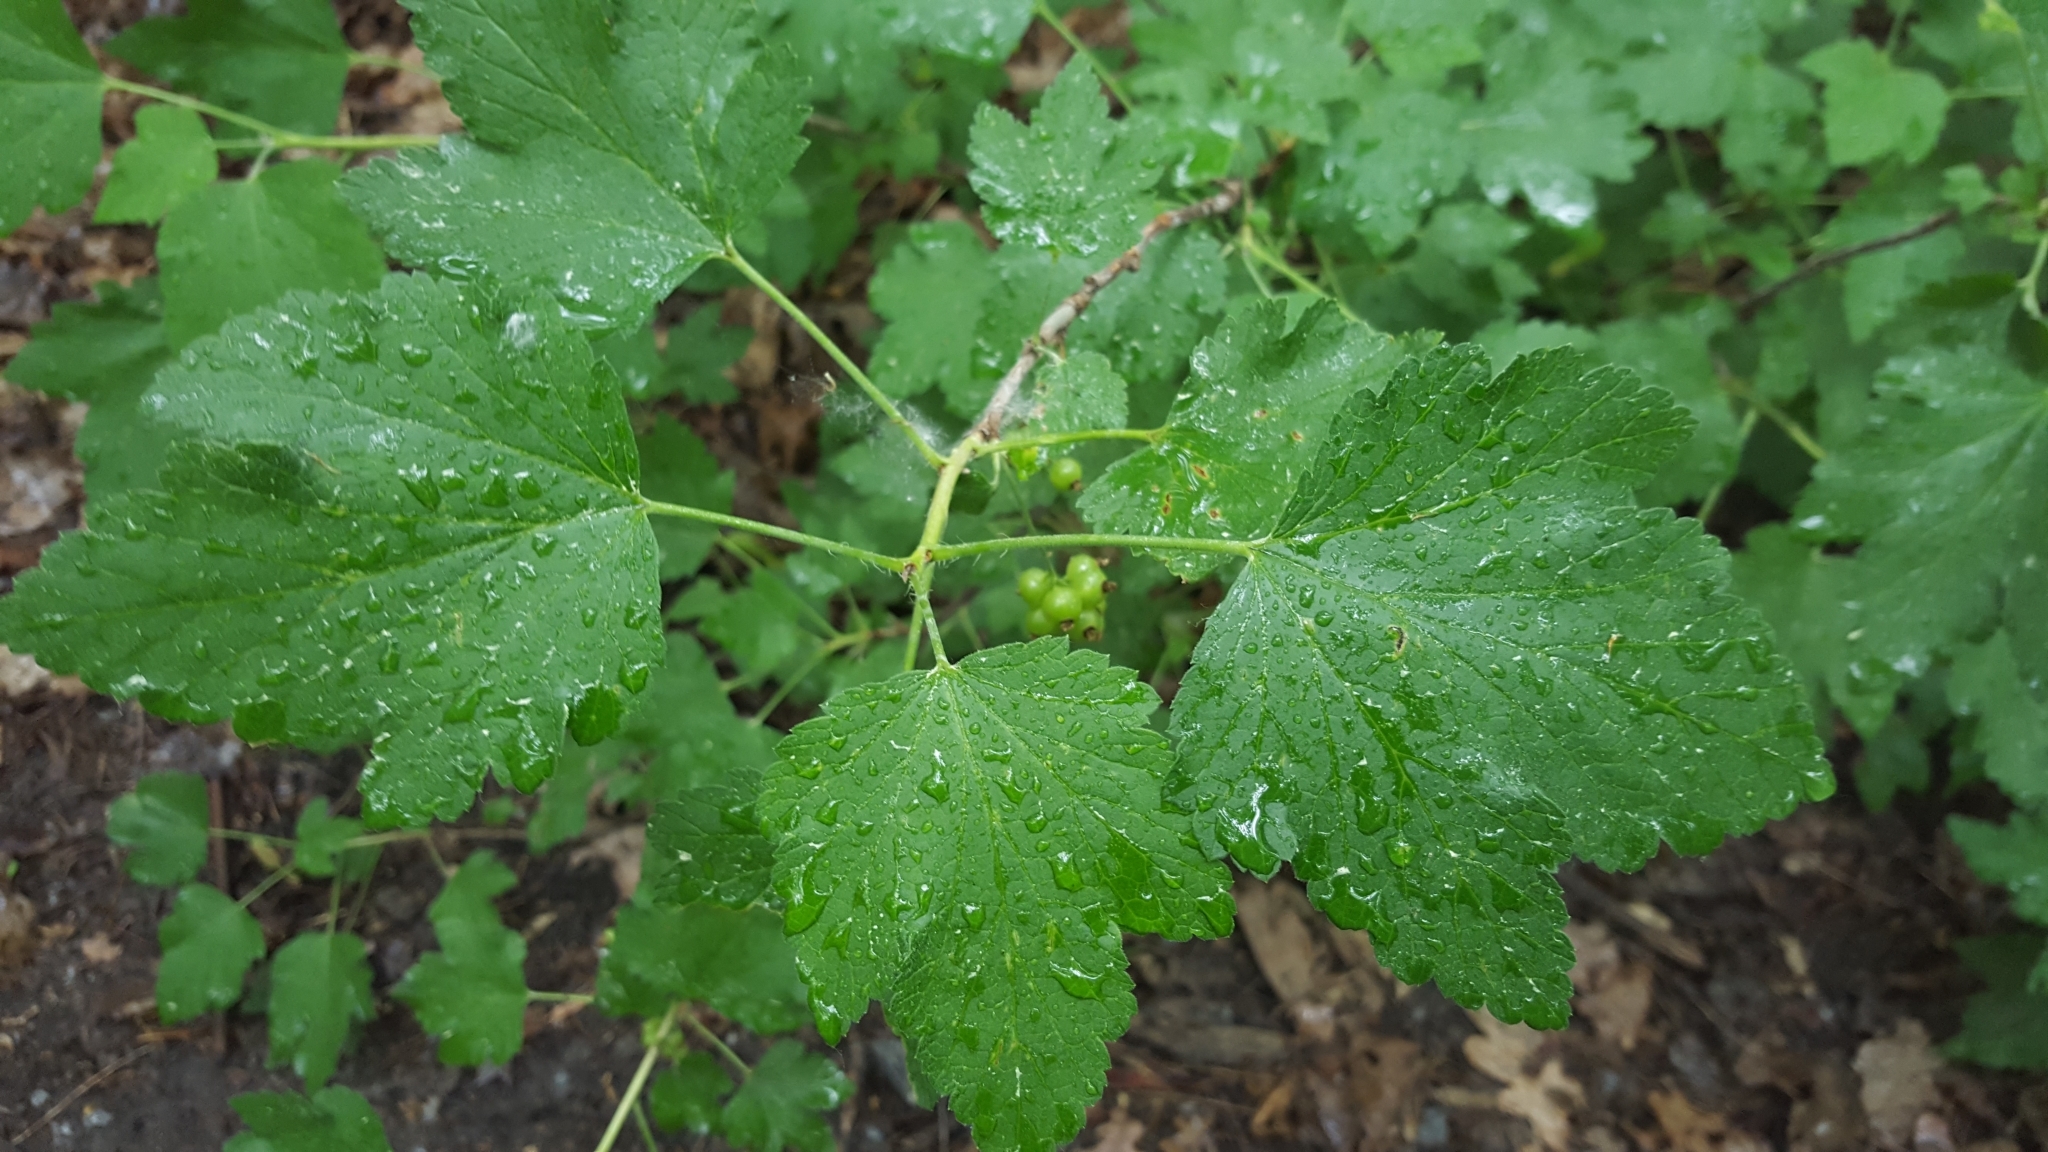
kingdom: Plantae
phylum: Tracheophyta
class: Magnoliopsida
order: Saxifragales
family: Grossulariaceae
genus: Ribes
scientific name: Ribes rubrum
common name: Red currant
